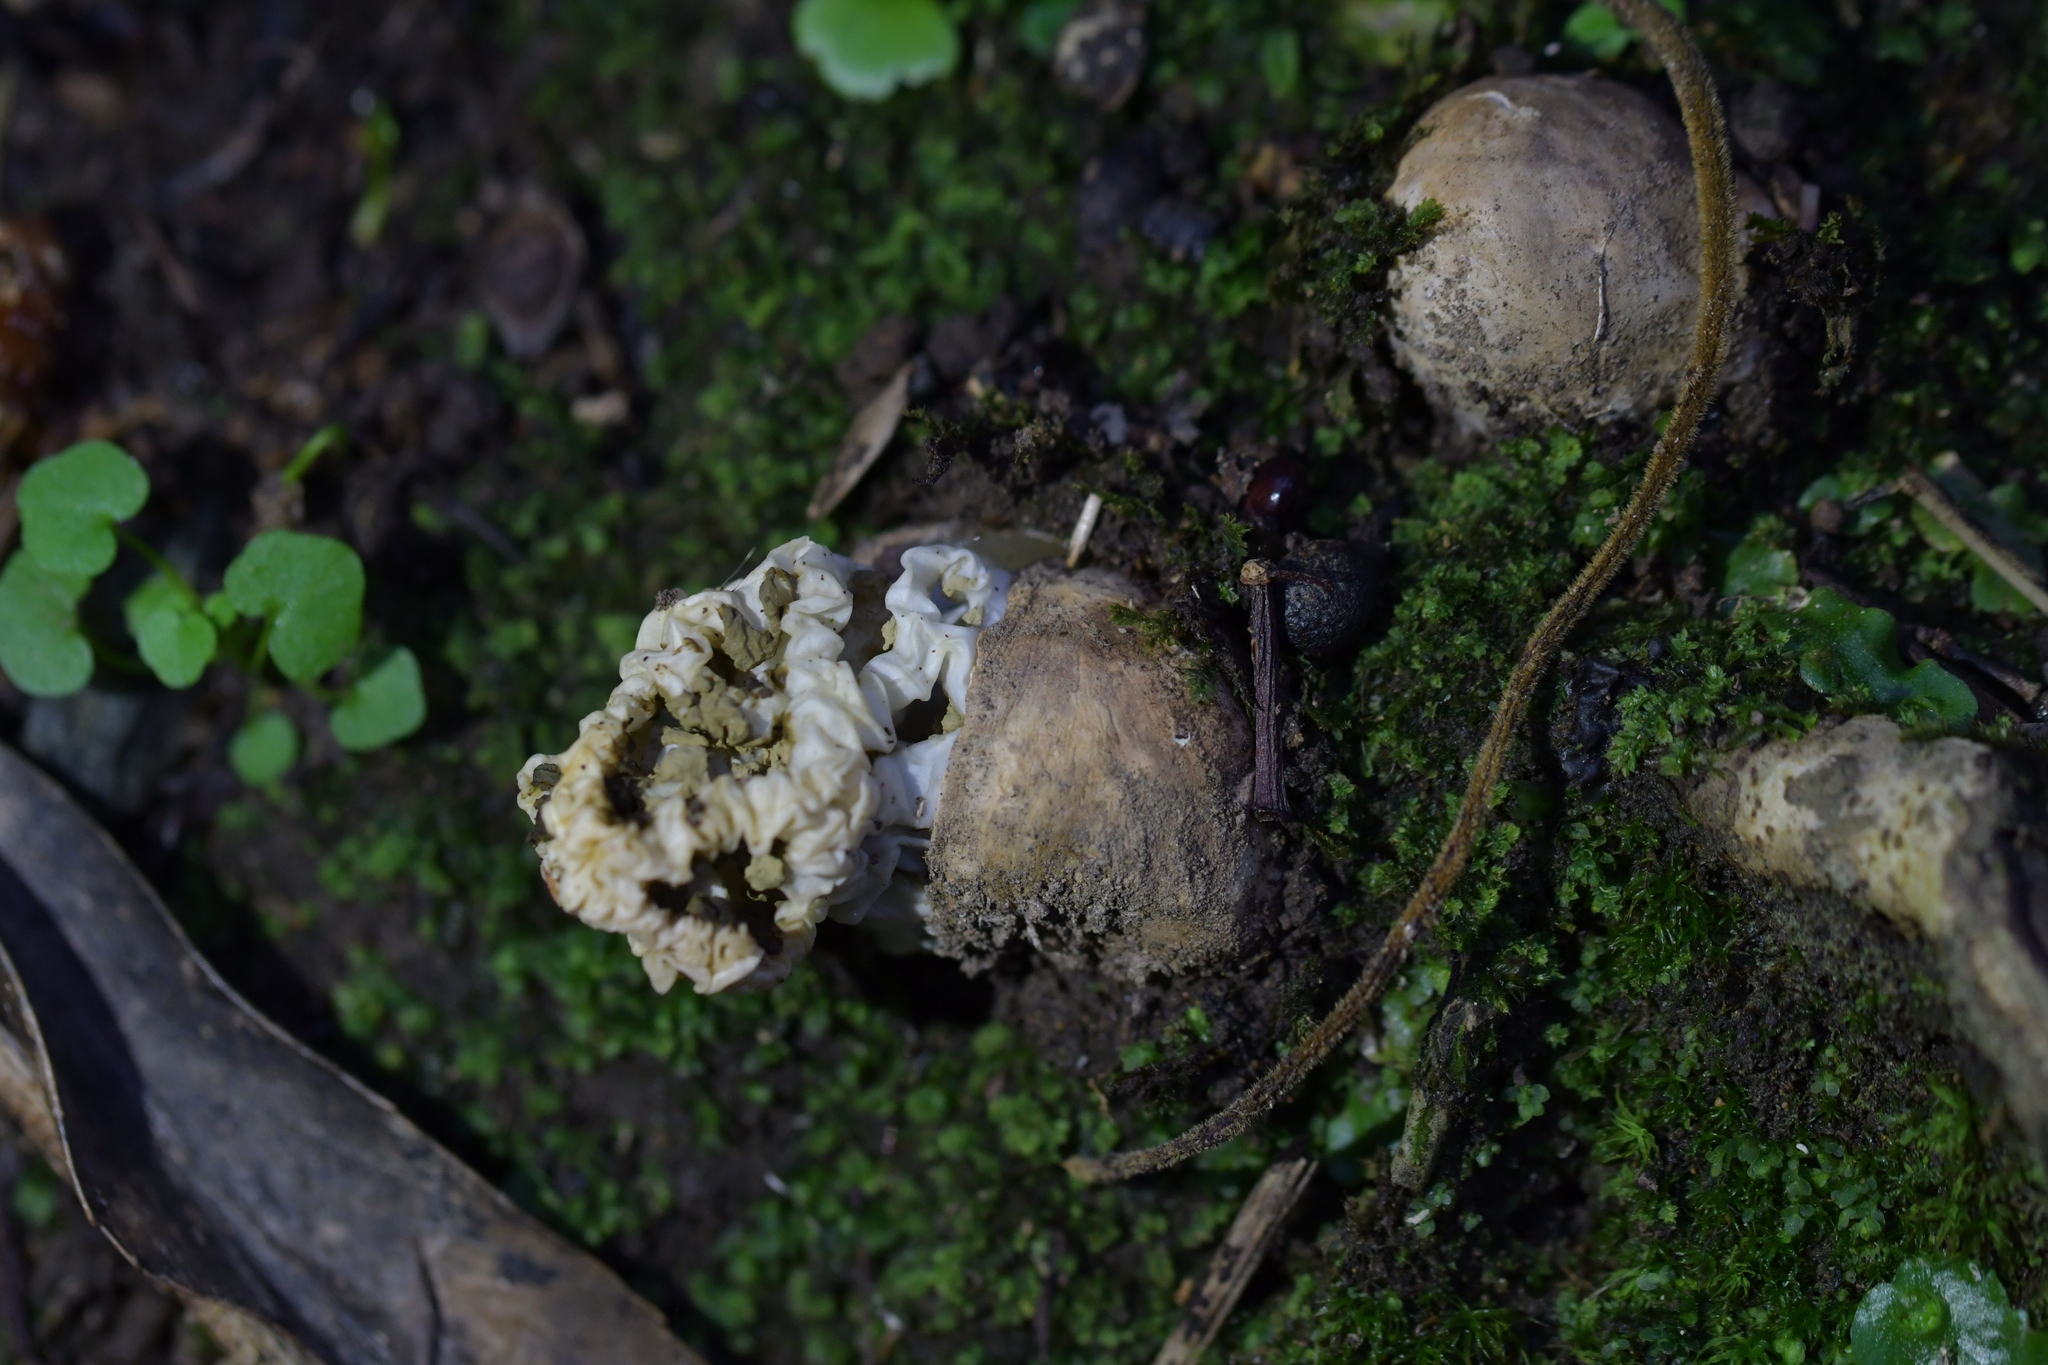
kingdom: Fungi
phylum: Basidiomycota
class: Agaricomycetes
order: Phallales
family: Phallaceae
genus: Ileodictyon
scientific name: Ileodictyon cibarium
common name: Basket fungus
